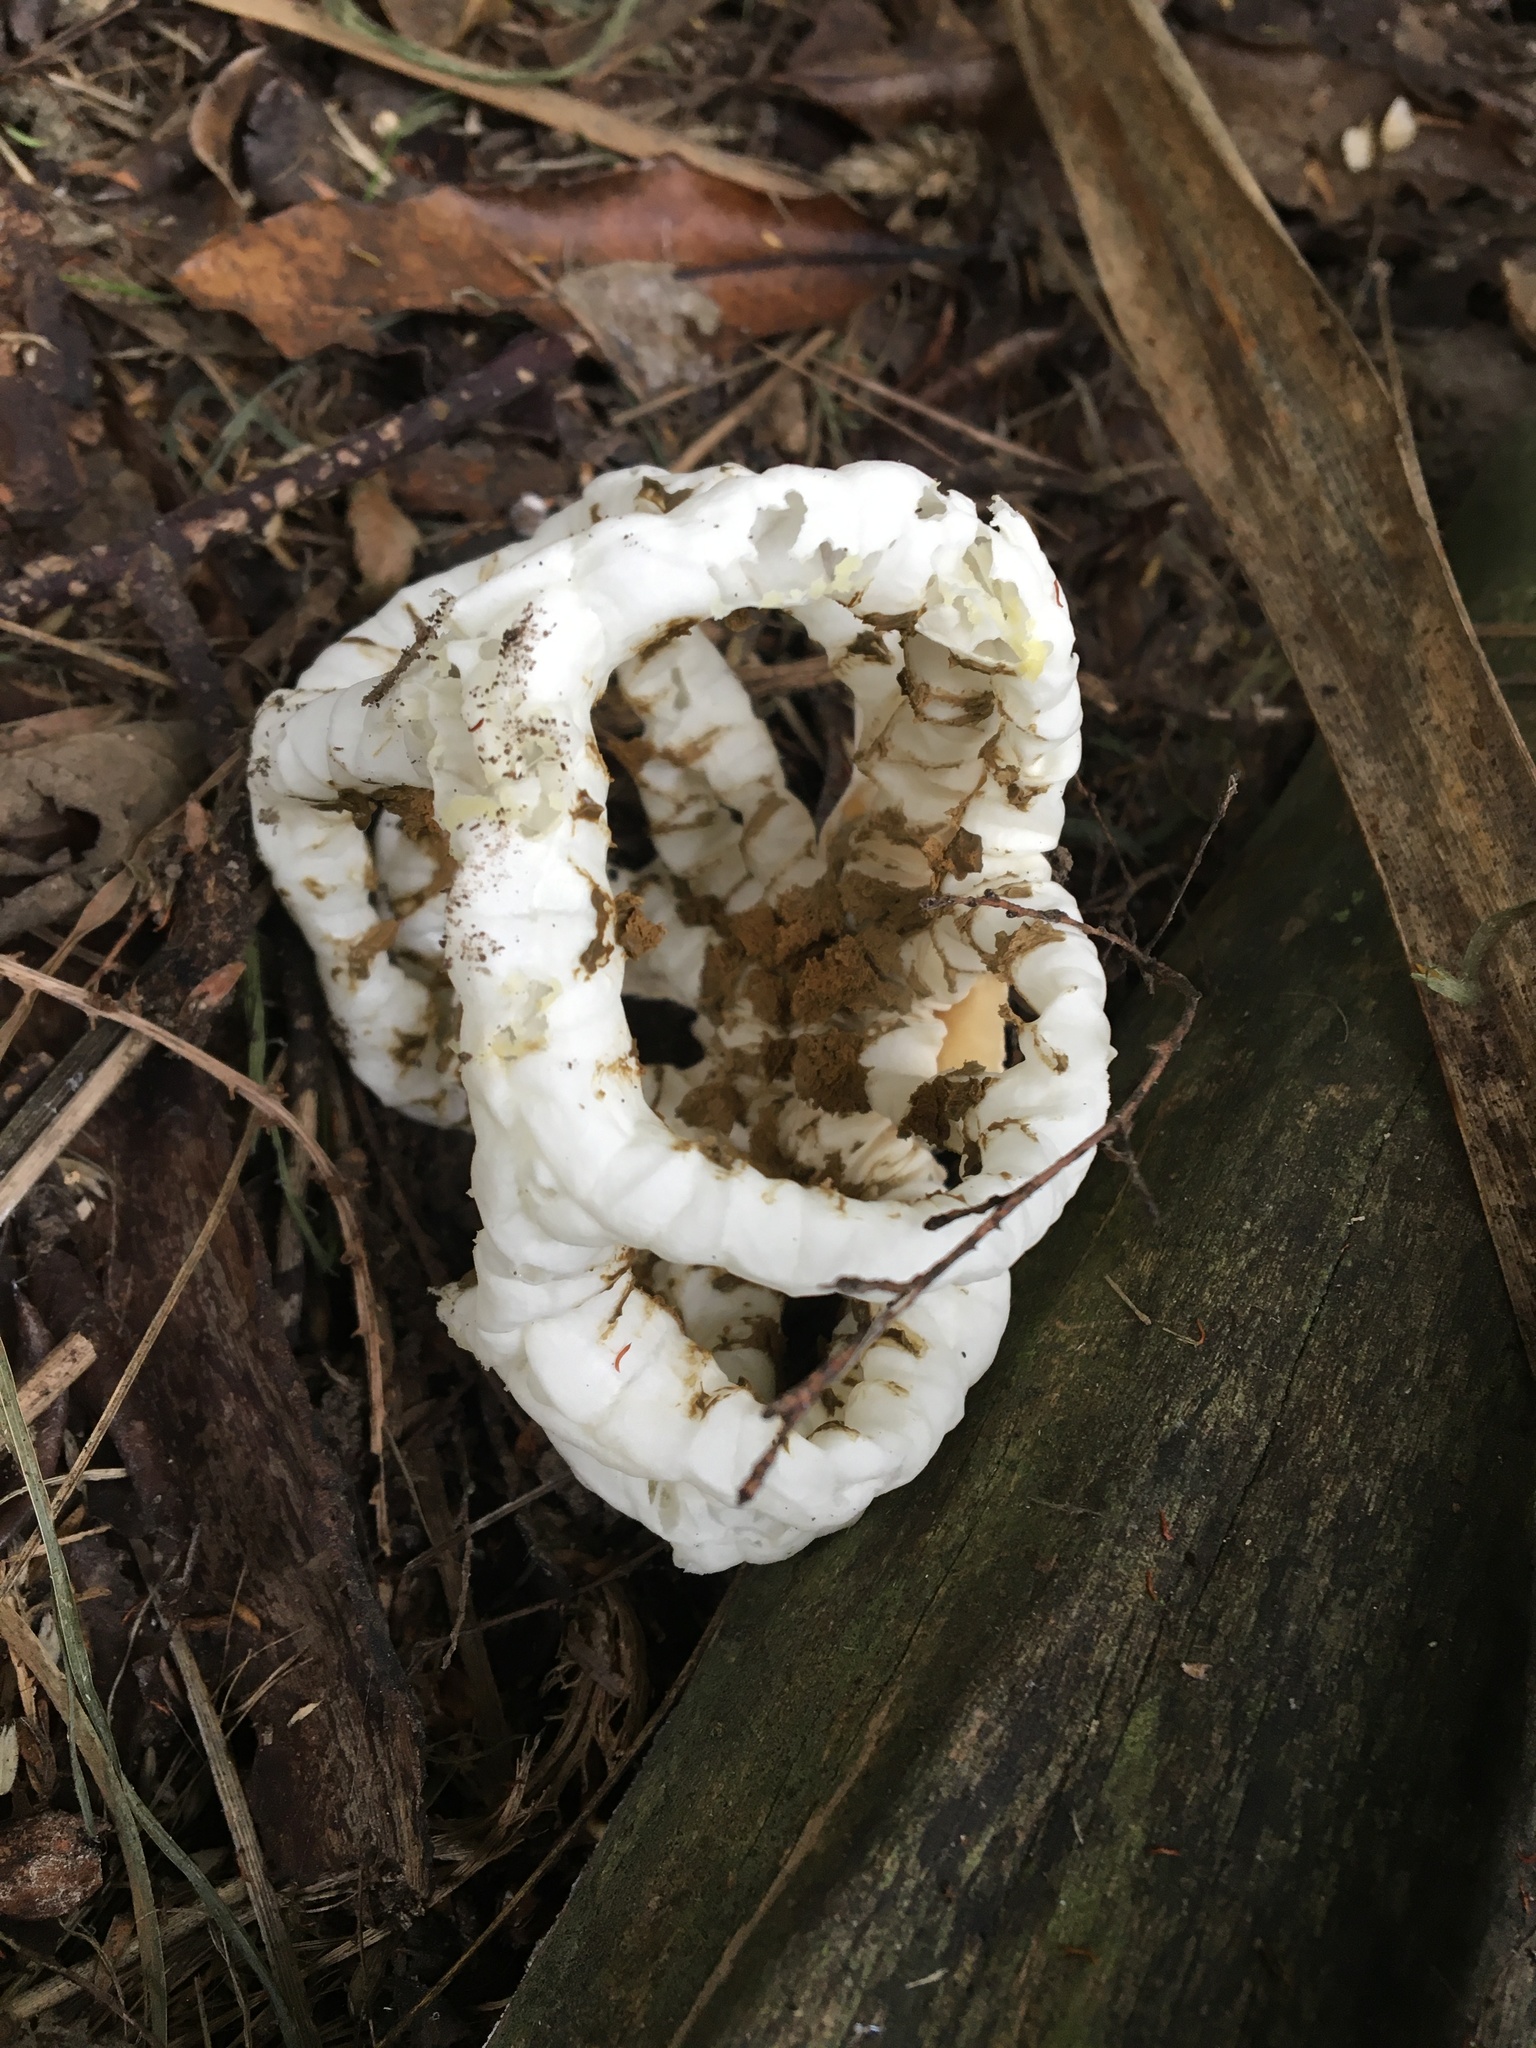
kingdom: Fungi
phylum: Basidiomycota
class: Agaricomycetes
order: Phallales
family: Phallaceae
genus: Ileodictyon
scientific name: Ileodictyon cibarium
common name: Basket fungus
